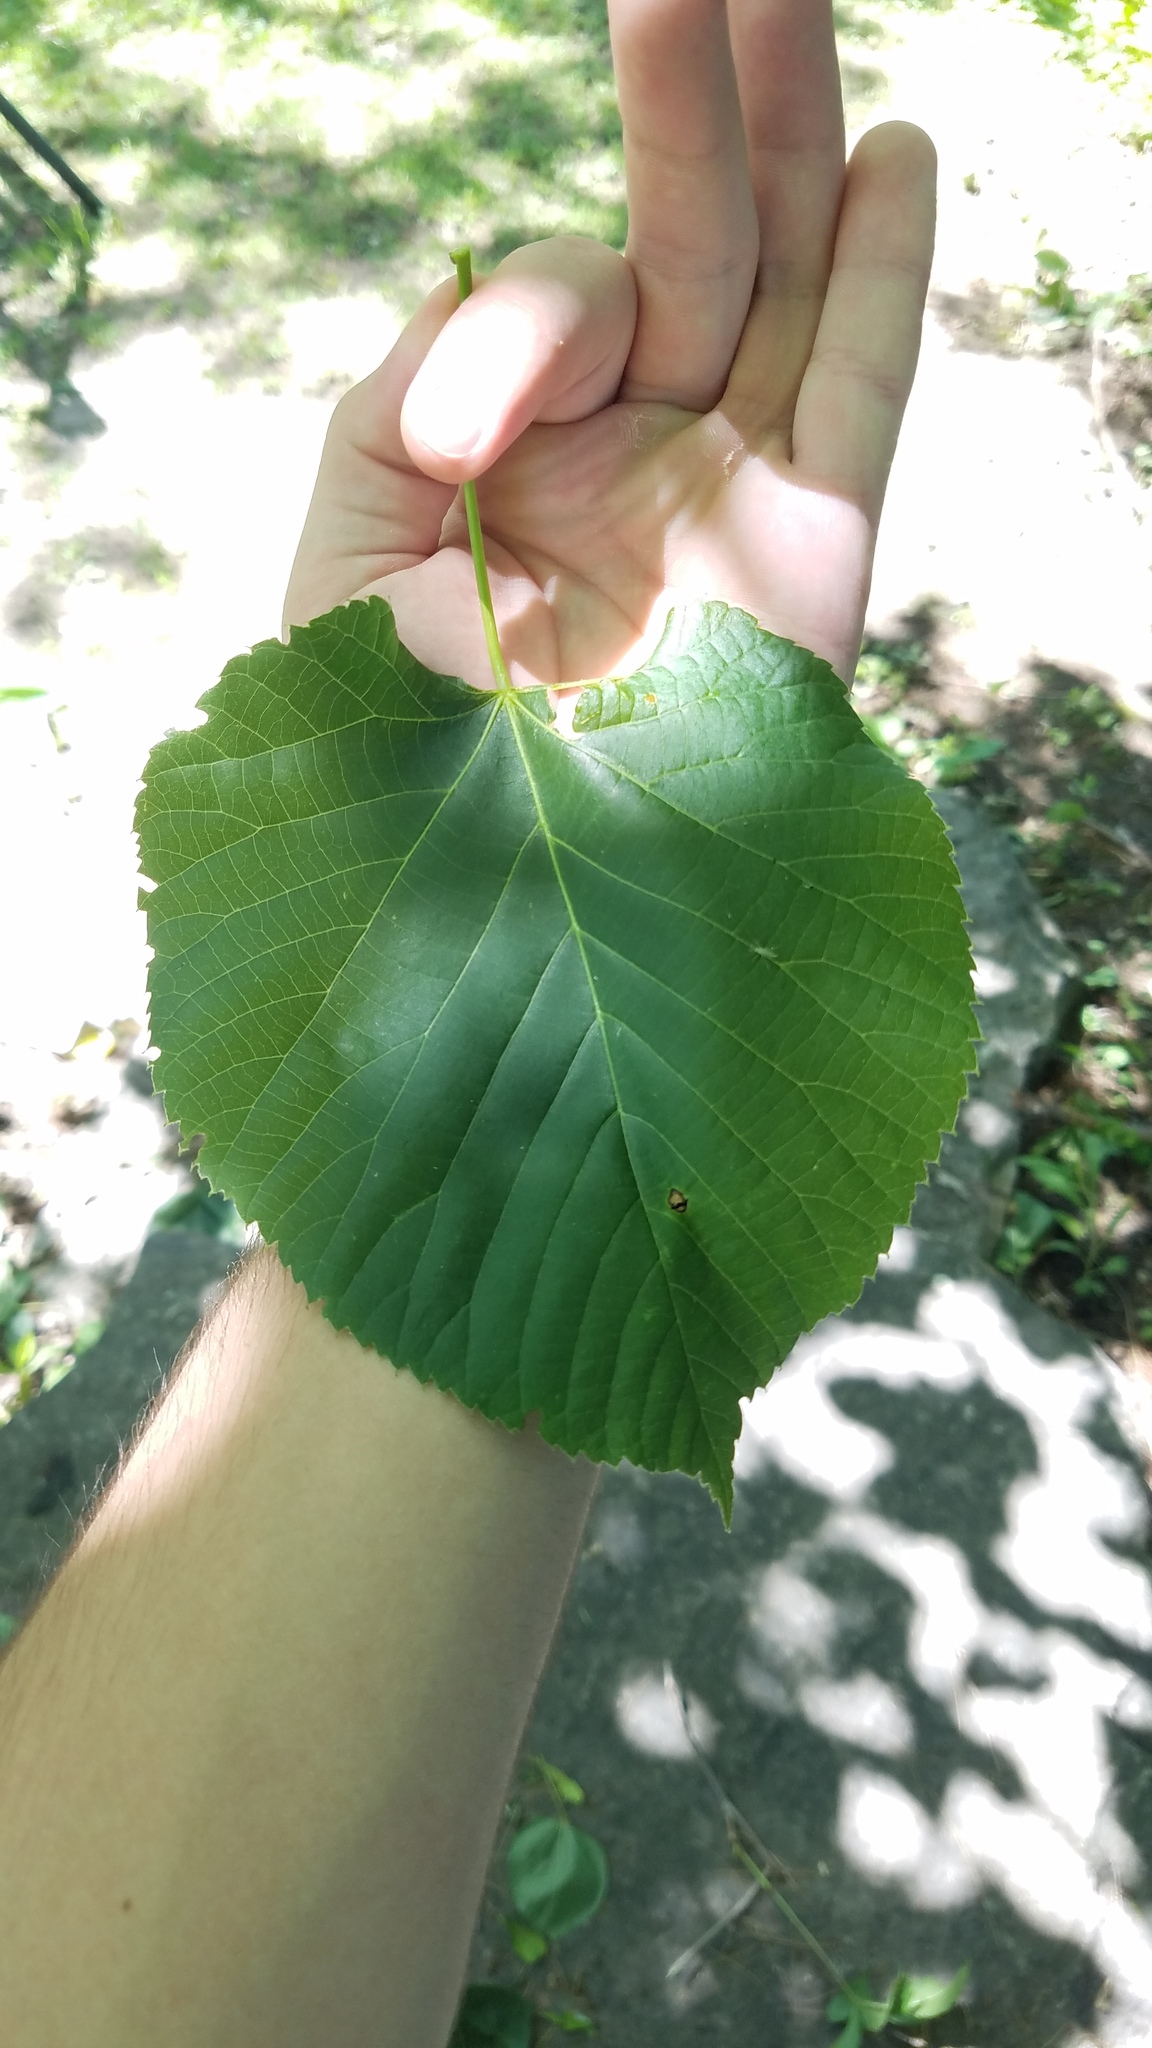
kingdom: Plantae
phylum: Tracheophyta
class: Magnoliopsida
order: Malvales
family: Malvaceae
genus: Tilia
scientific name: Tilia americana
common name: Basswood
